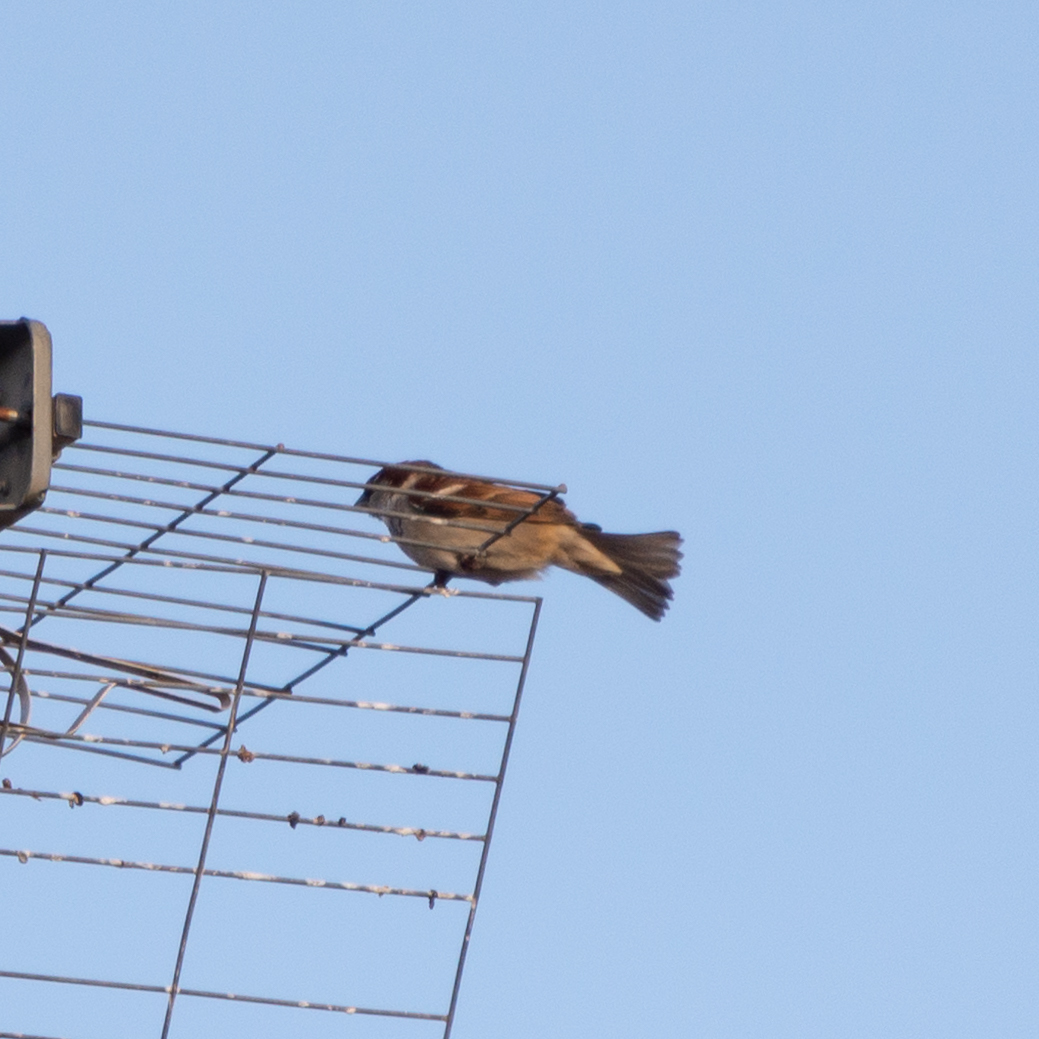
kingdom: Animalia
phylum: Chordata
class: Aves
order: Passeriformes
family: Passeridae
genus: Passer
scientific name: Passer domesticus
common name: House sparrow
